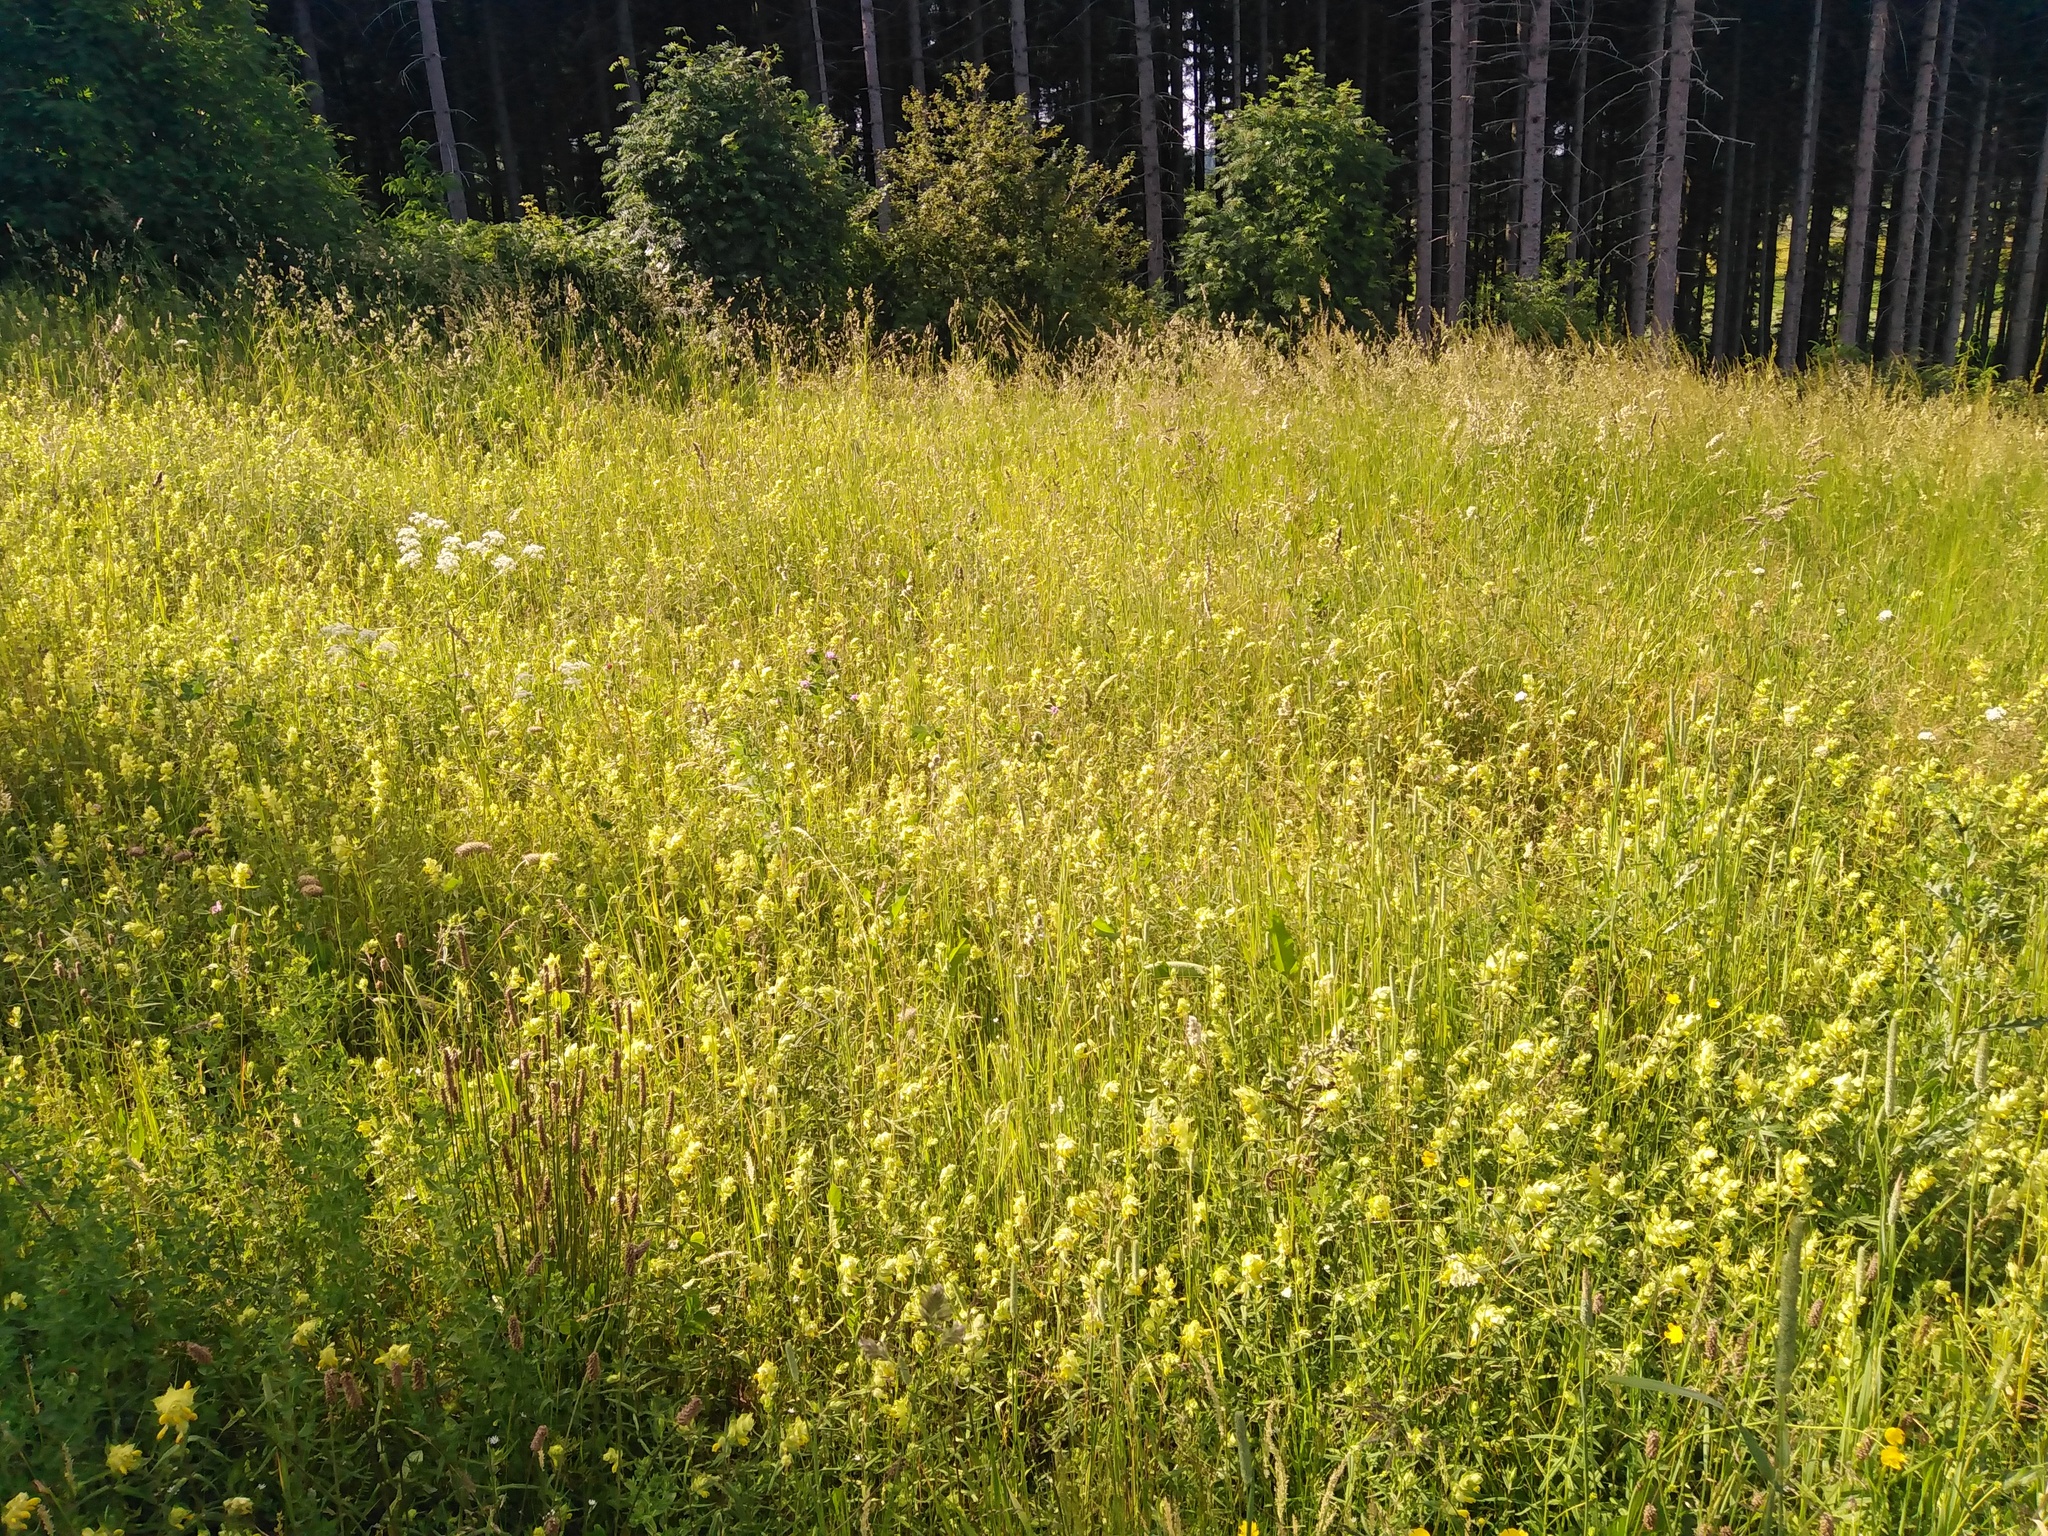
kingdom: Plantae
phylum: Tracheophyta
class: Magnoliopsida
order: Lamiales
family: Orobanchaceae
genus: Rhinanthus
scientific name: Rhinanthus alectorolophus
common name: Greater yellow-rattle
